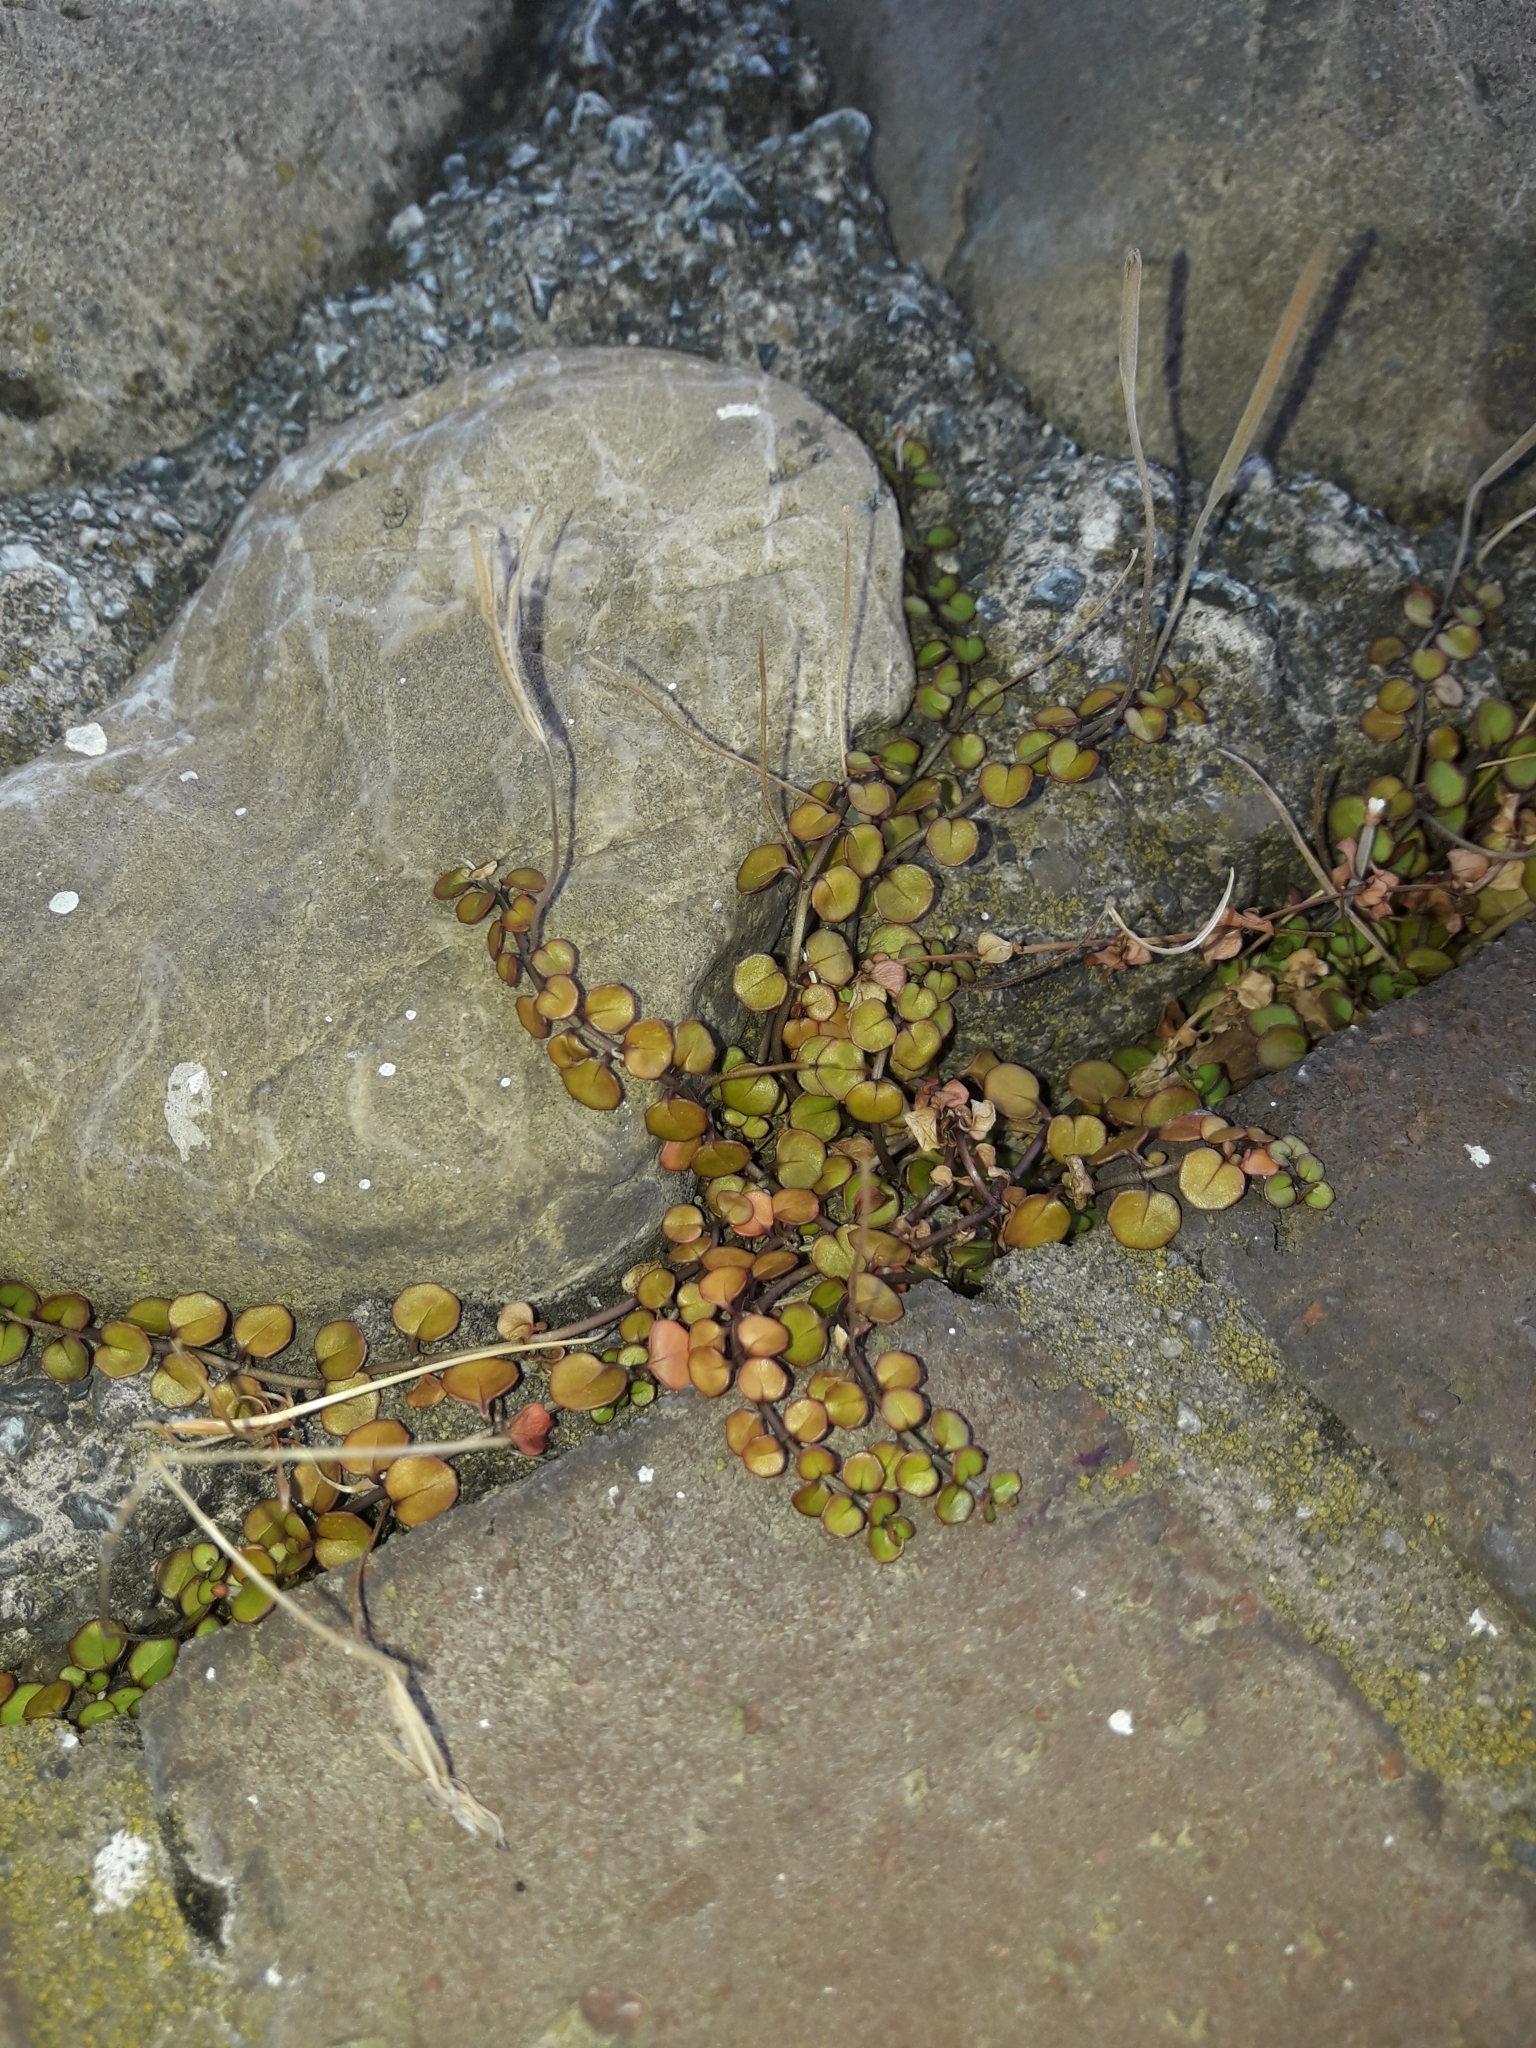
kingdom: Plantae
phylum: Tracheophyta
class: Magnoliopsida
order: Myrtales
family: Onagraceae
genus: Epilobium
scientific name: Epilobium nummularifolium
